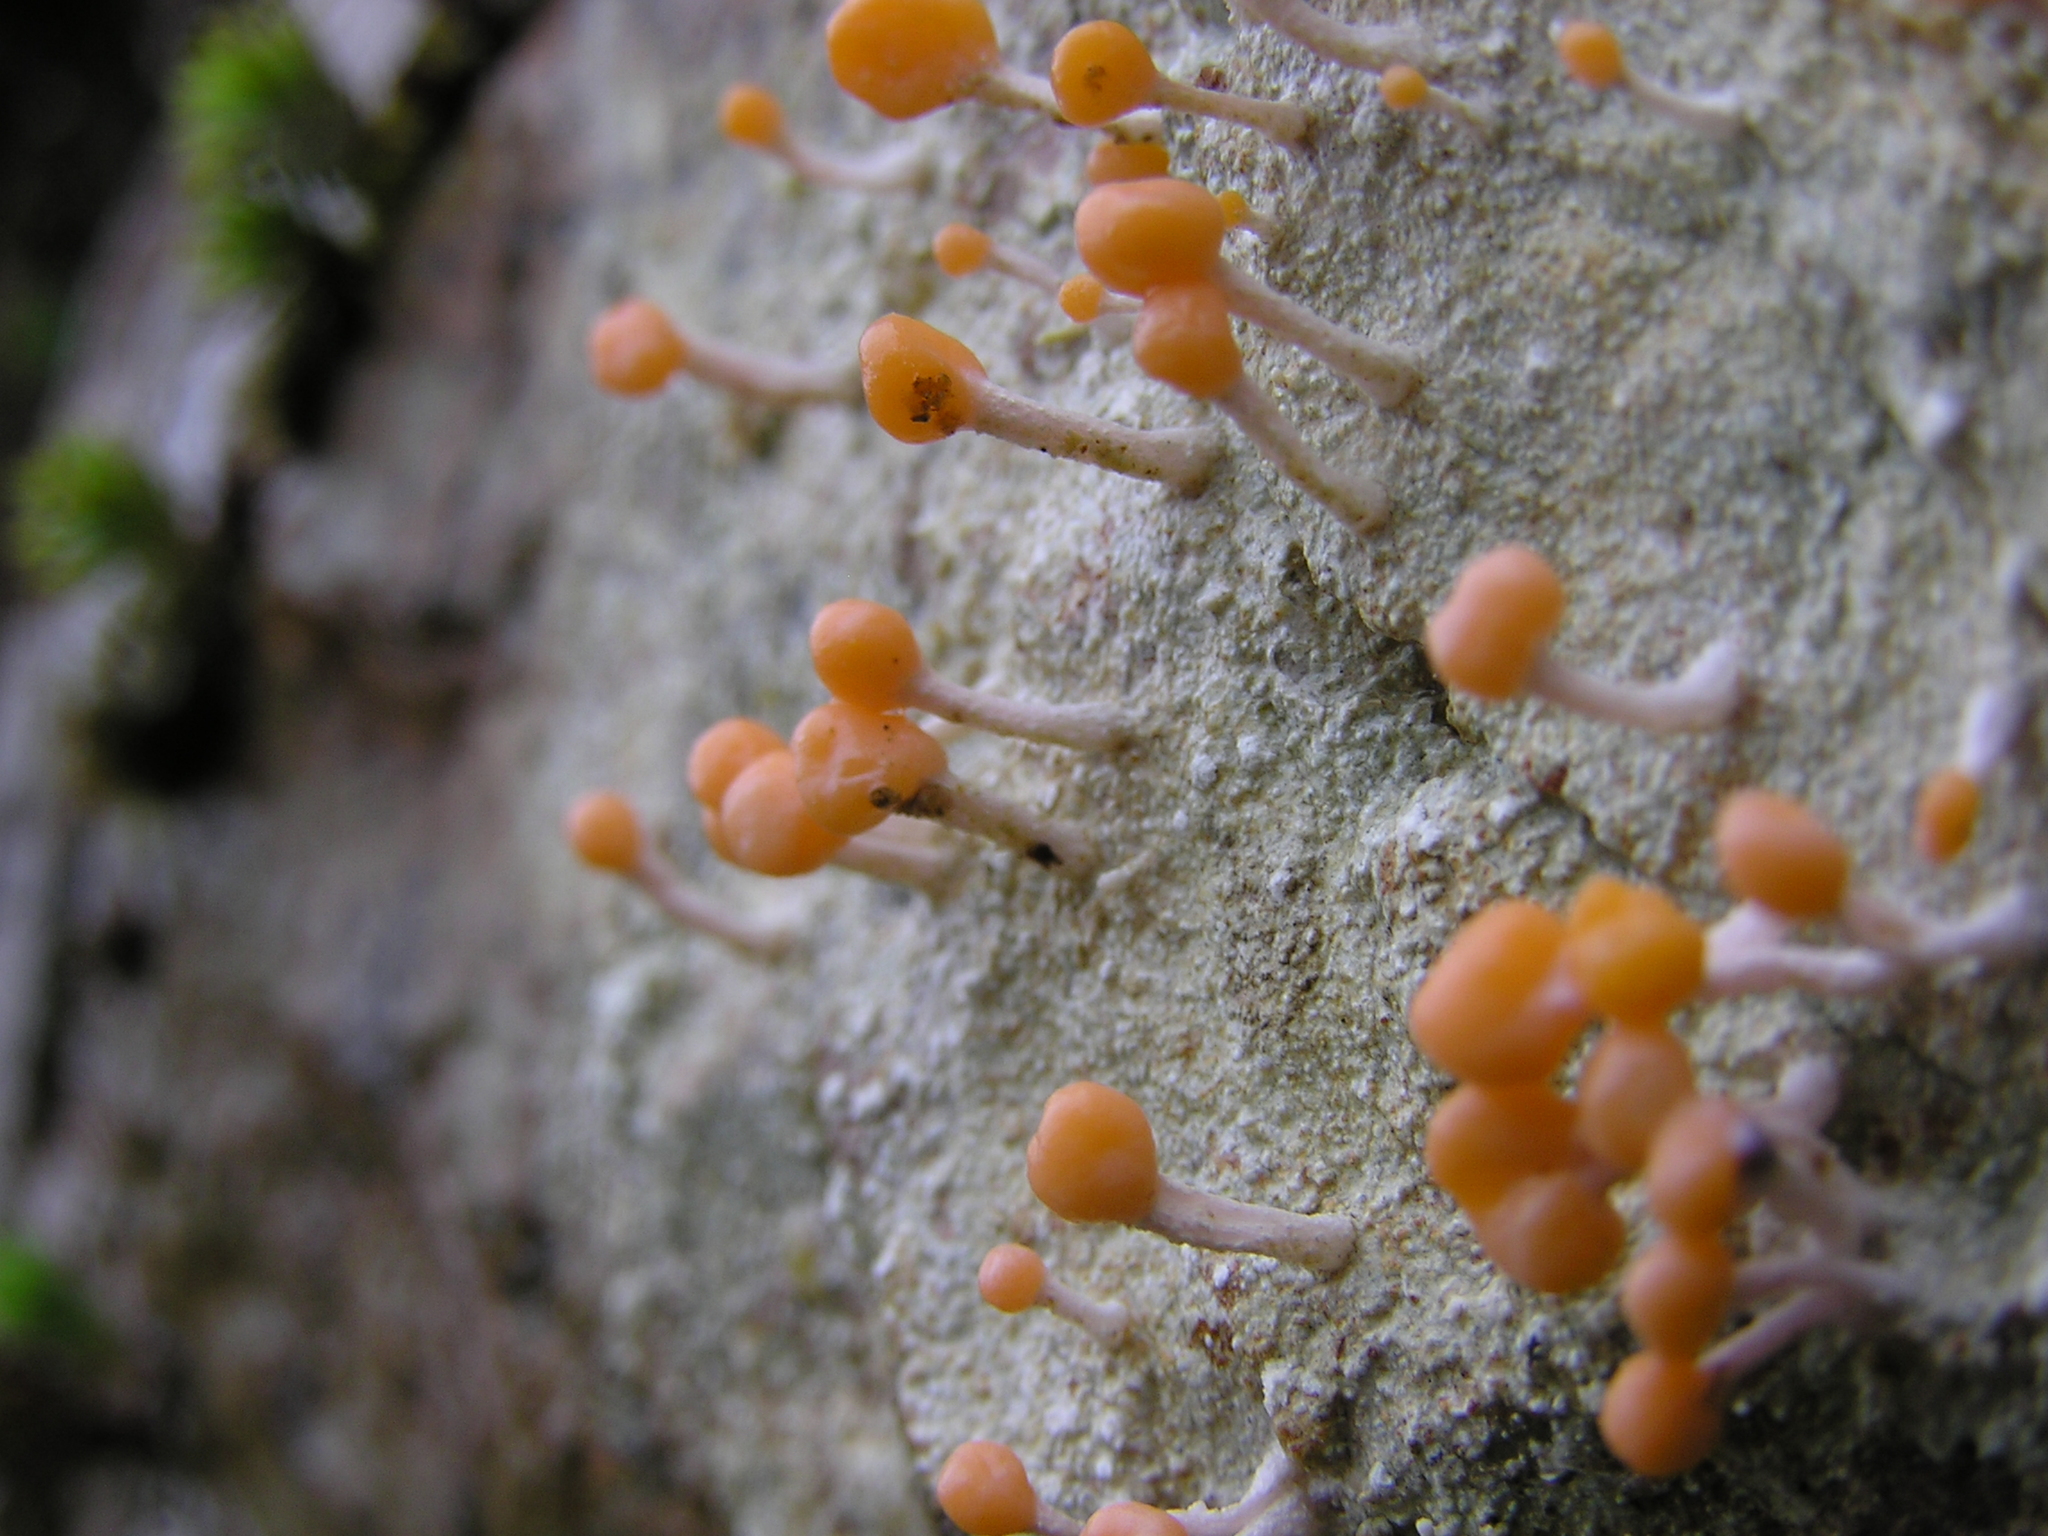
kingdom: Fungi
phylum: Ascomycota
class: Lecanoromycetes
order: Pertusariales
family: Icmadophilaceae
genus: Dibaeis
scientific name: Dibaeis arcuata
